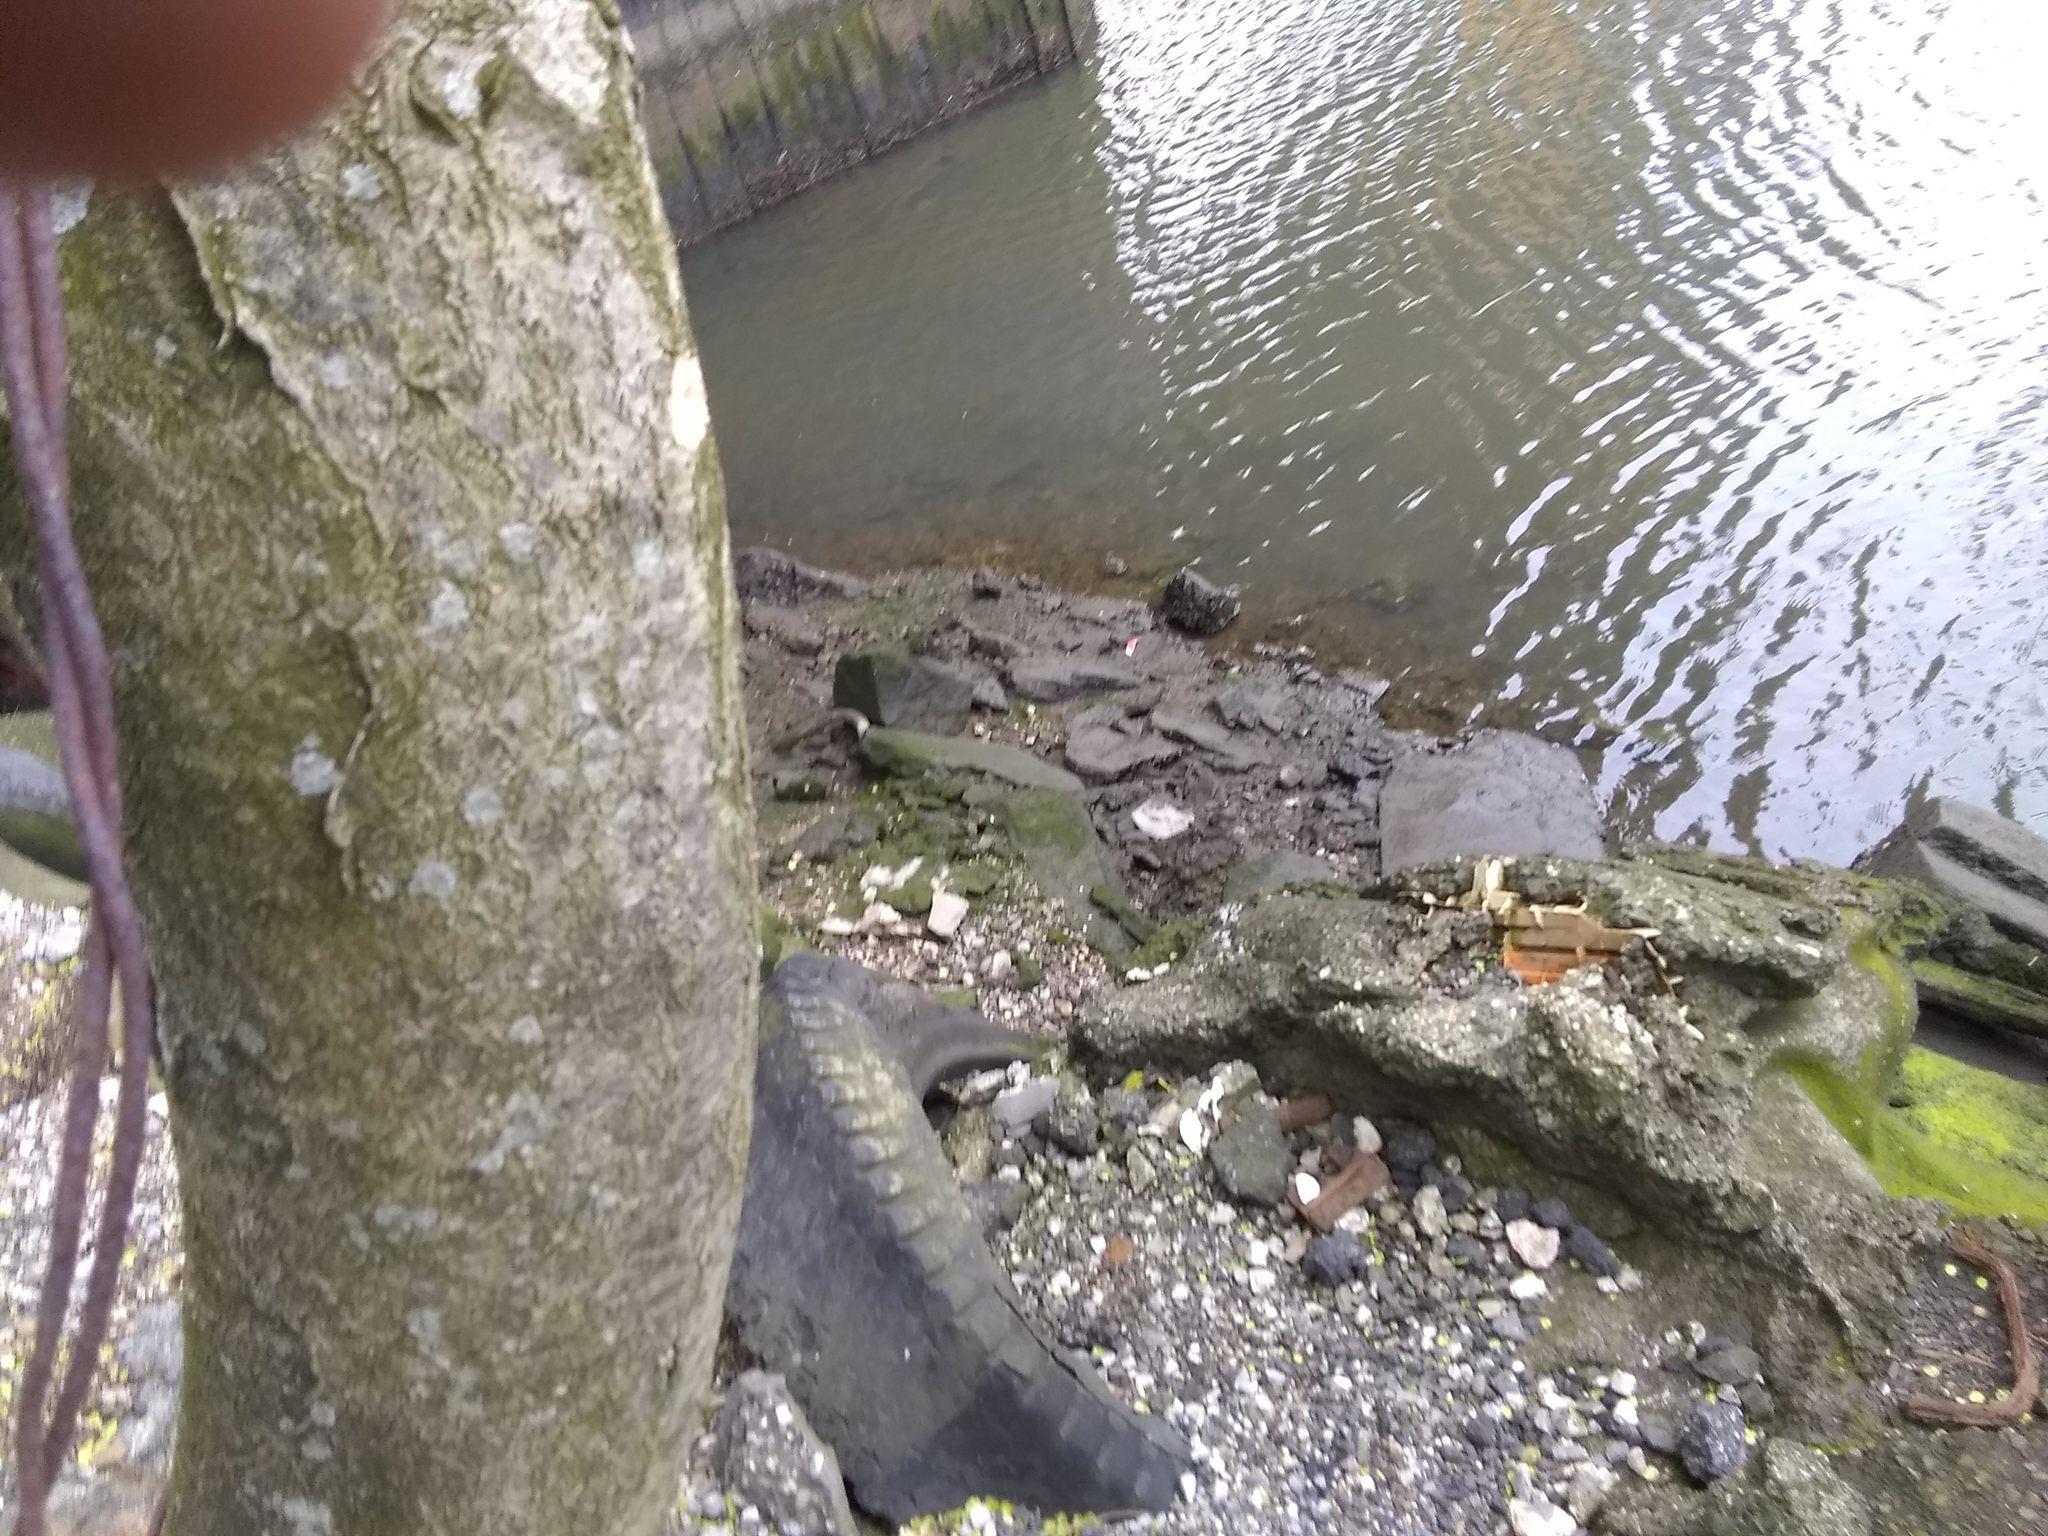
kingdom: Plantae
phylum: Tracheophyta
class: Magnoliopsida
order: Sapindales
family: Simaroubaceae
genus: Ailanthus
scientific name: Ailanthus altissima
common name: Tree-of-heaven
